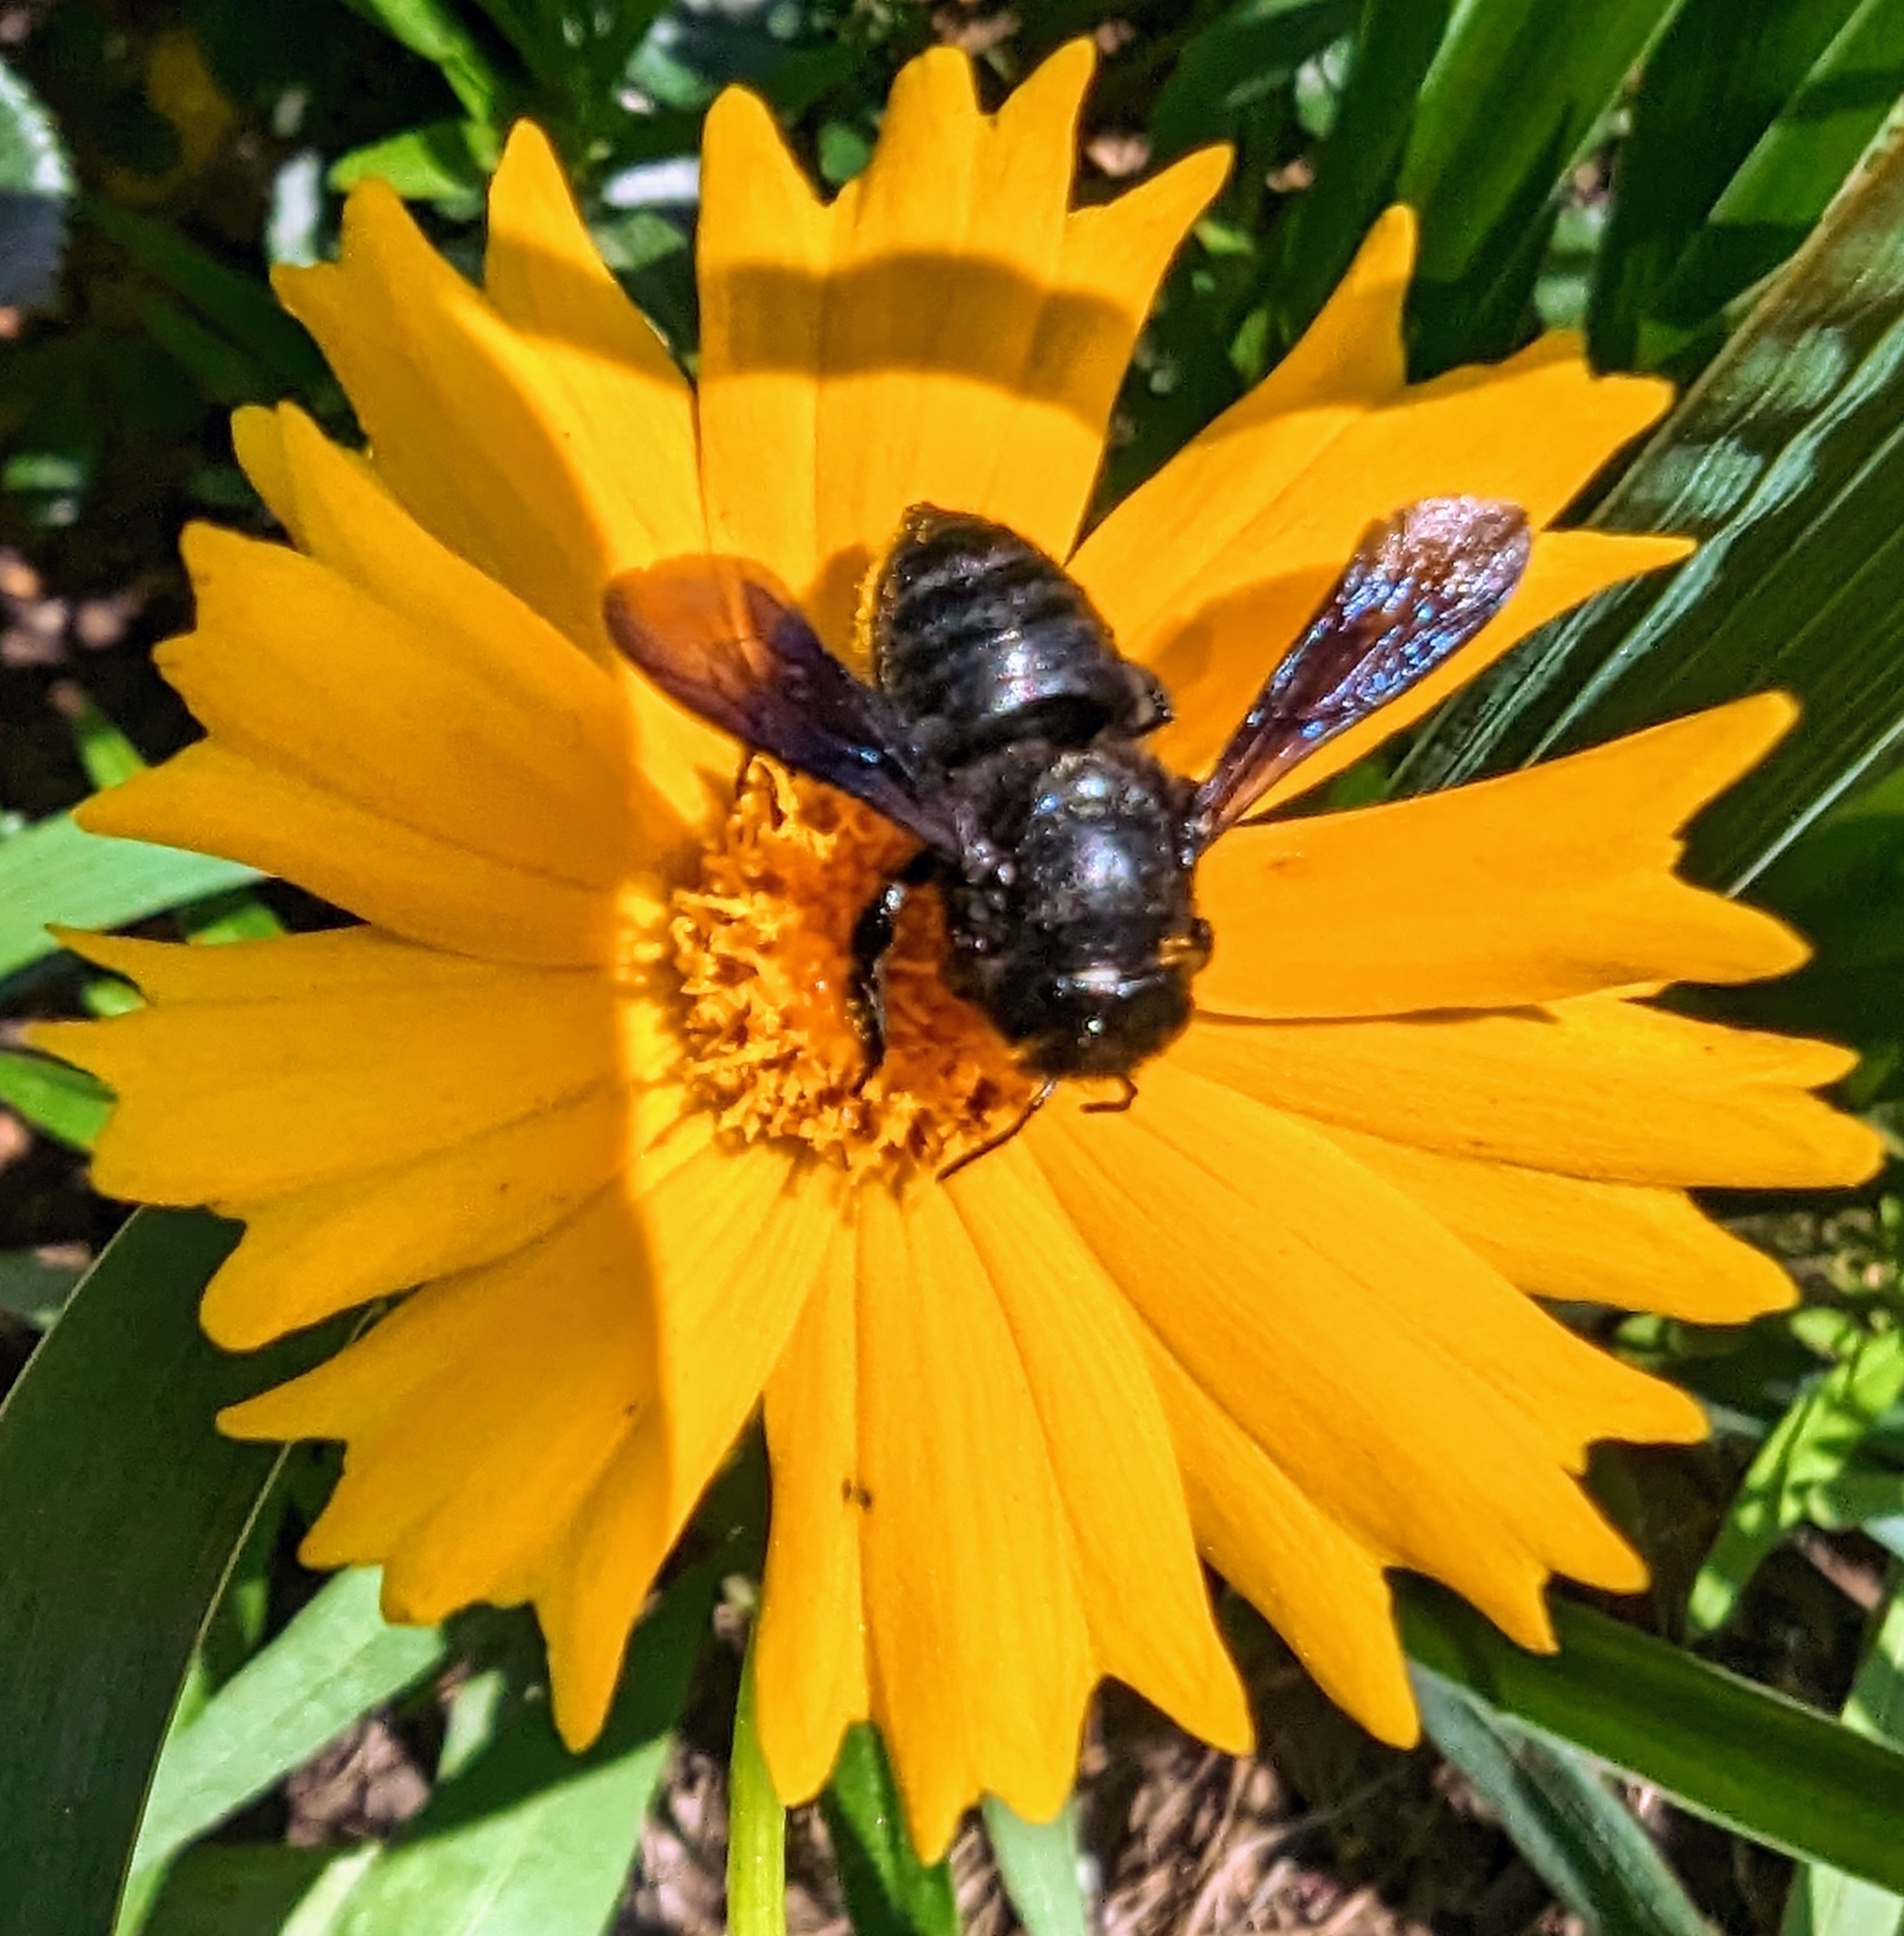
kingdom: Animalia
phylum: Arthropoda
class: Insecta
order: Hymenoptera
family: Megachilidae
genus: Megachile
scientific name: Megachile xylocopoides
